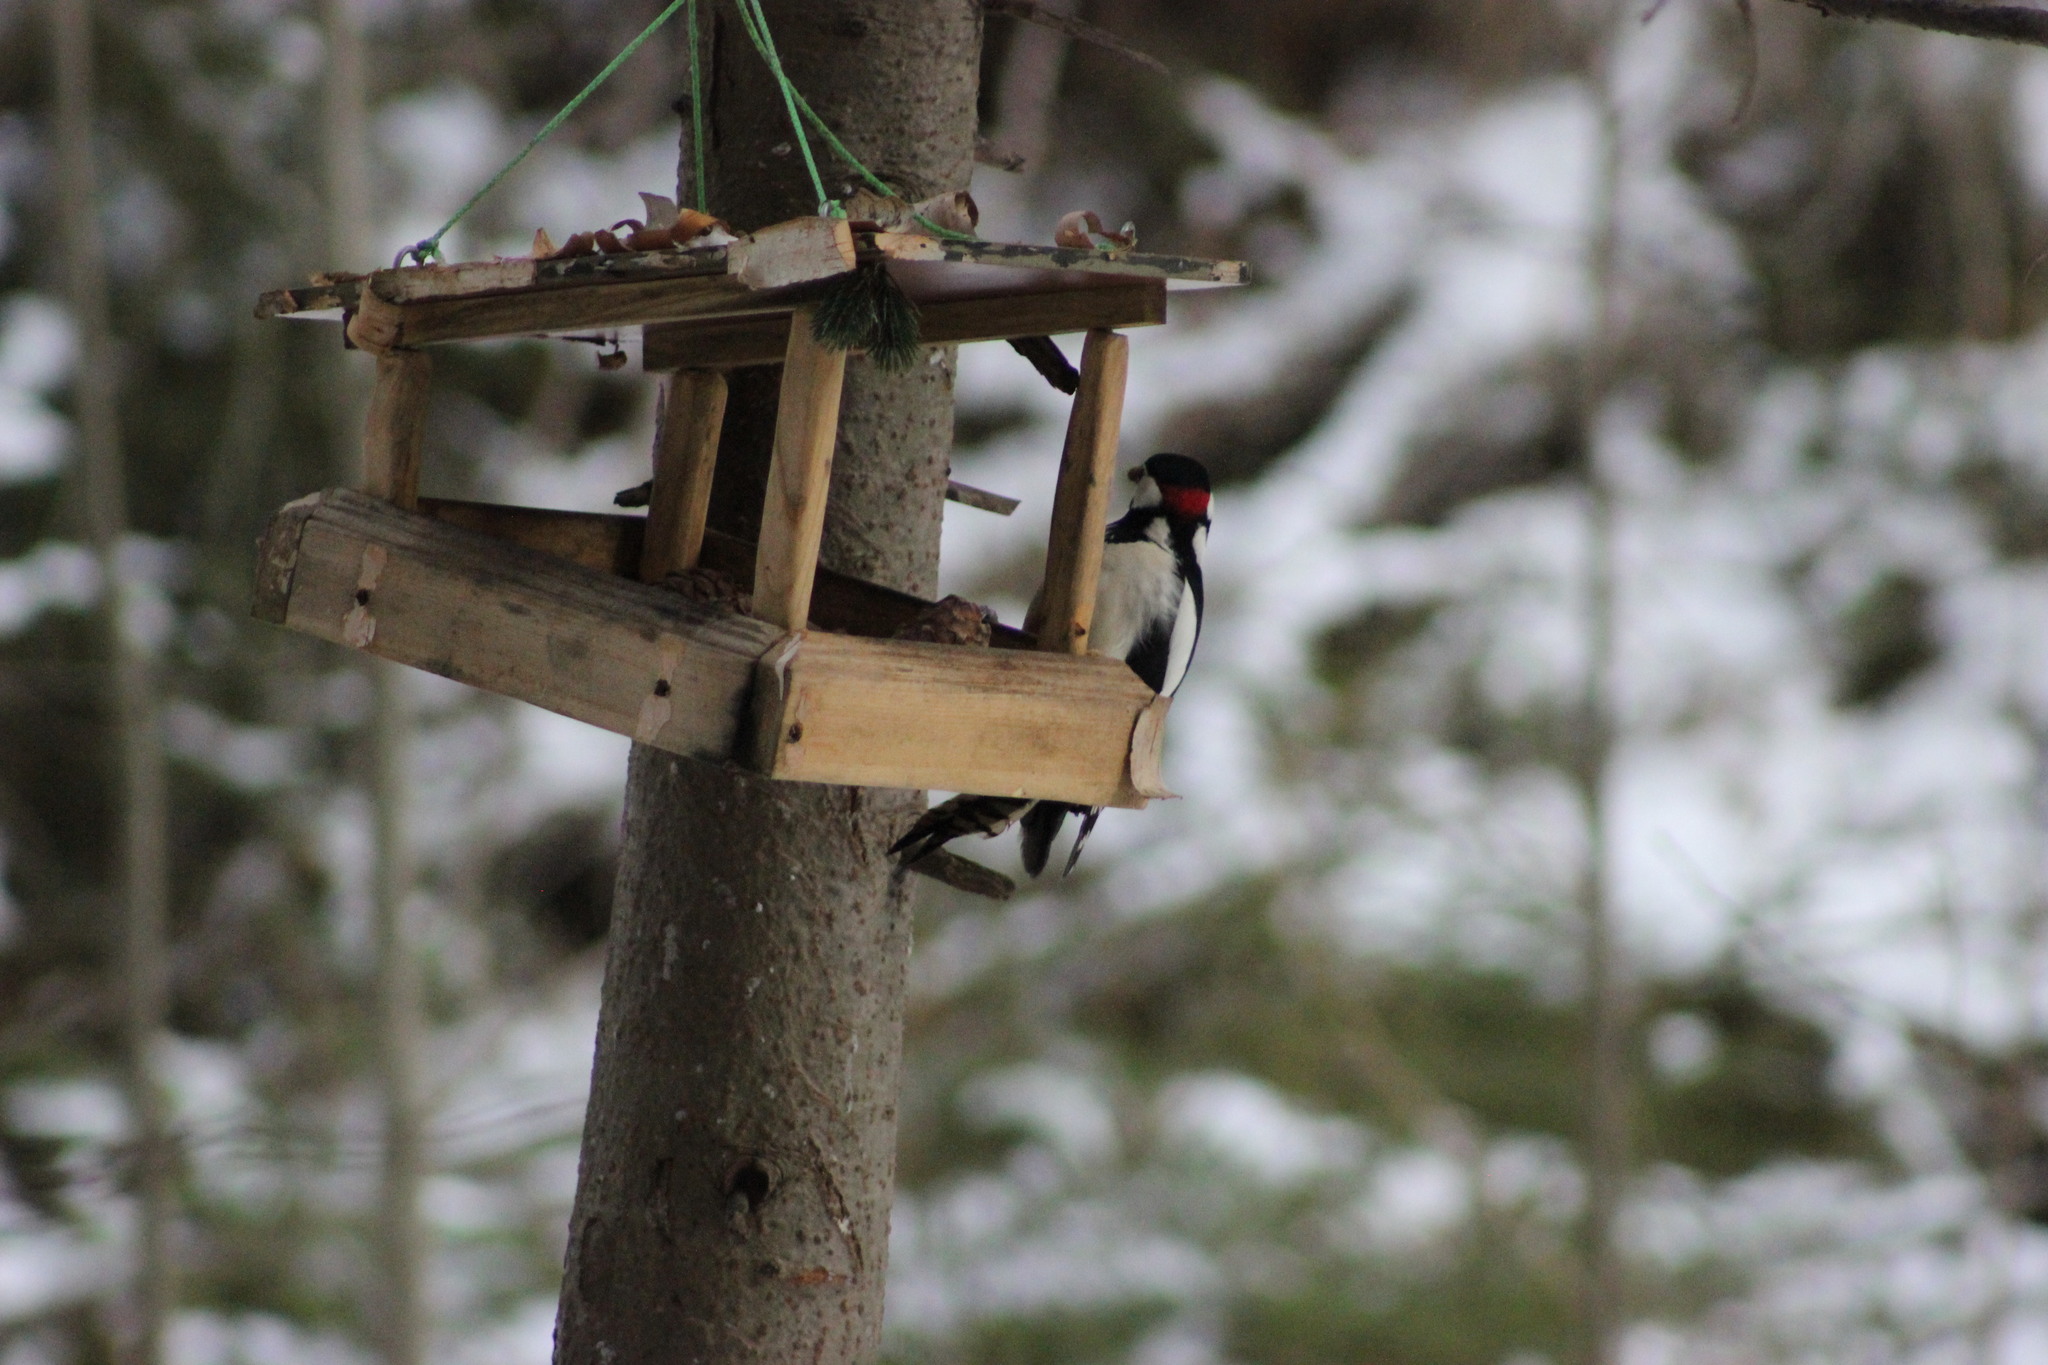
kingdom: Animalia
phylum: Chordata
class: Aves
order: Piciformes
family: Picidae
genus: Dendrocopos
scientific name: Dendrocopos major
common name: Great spotted woodpecker
